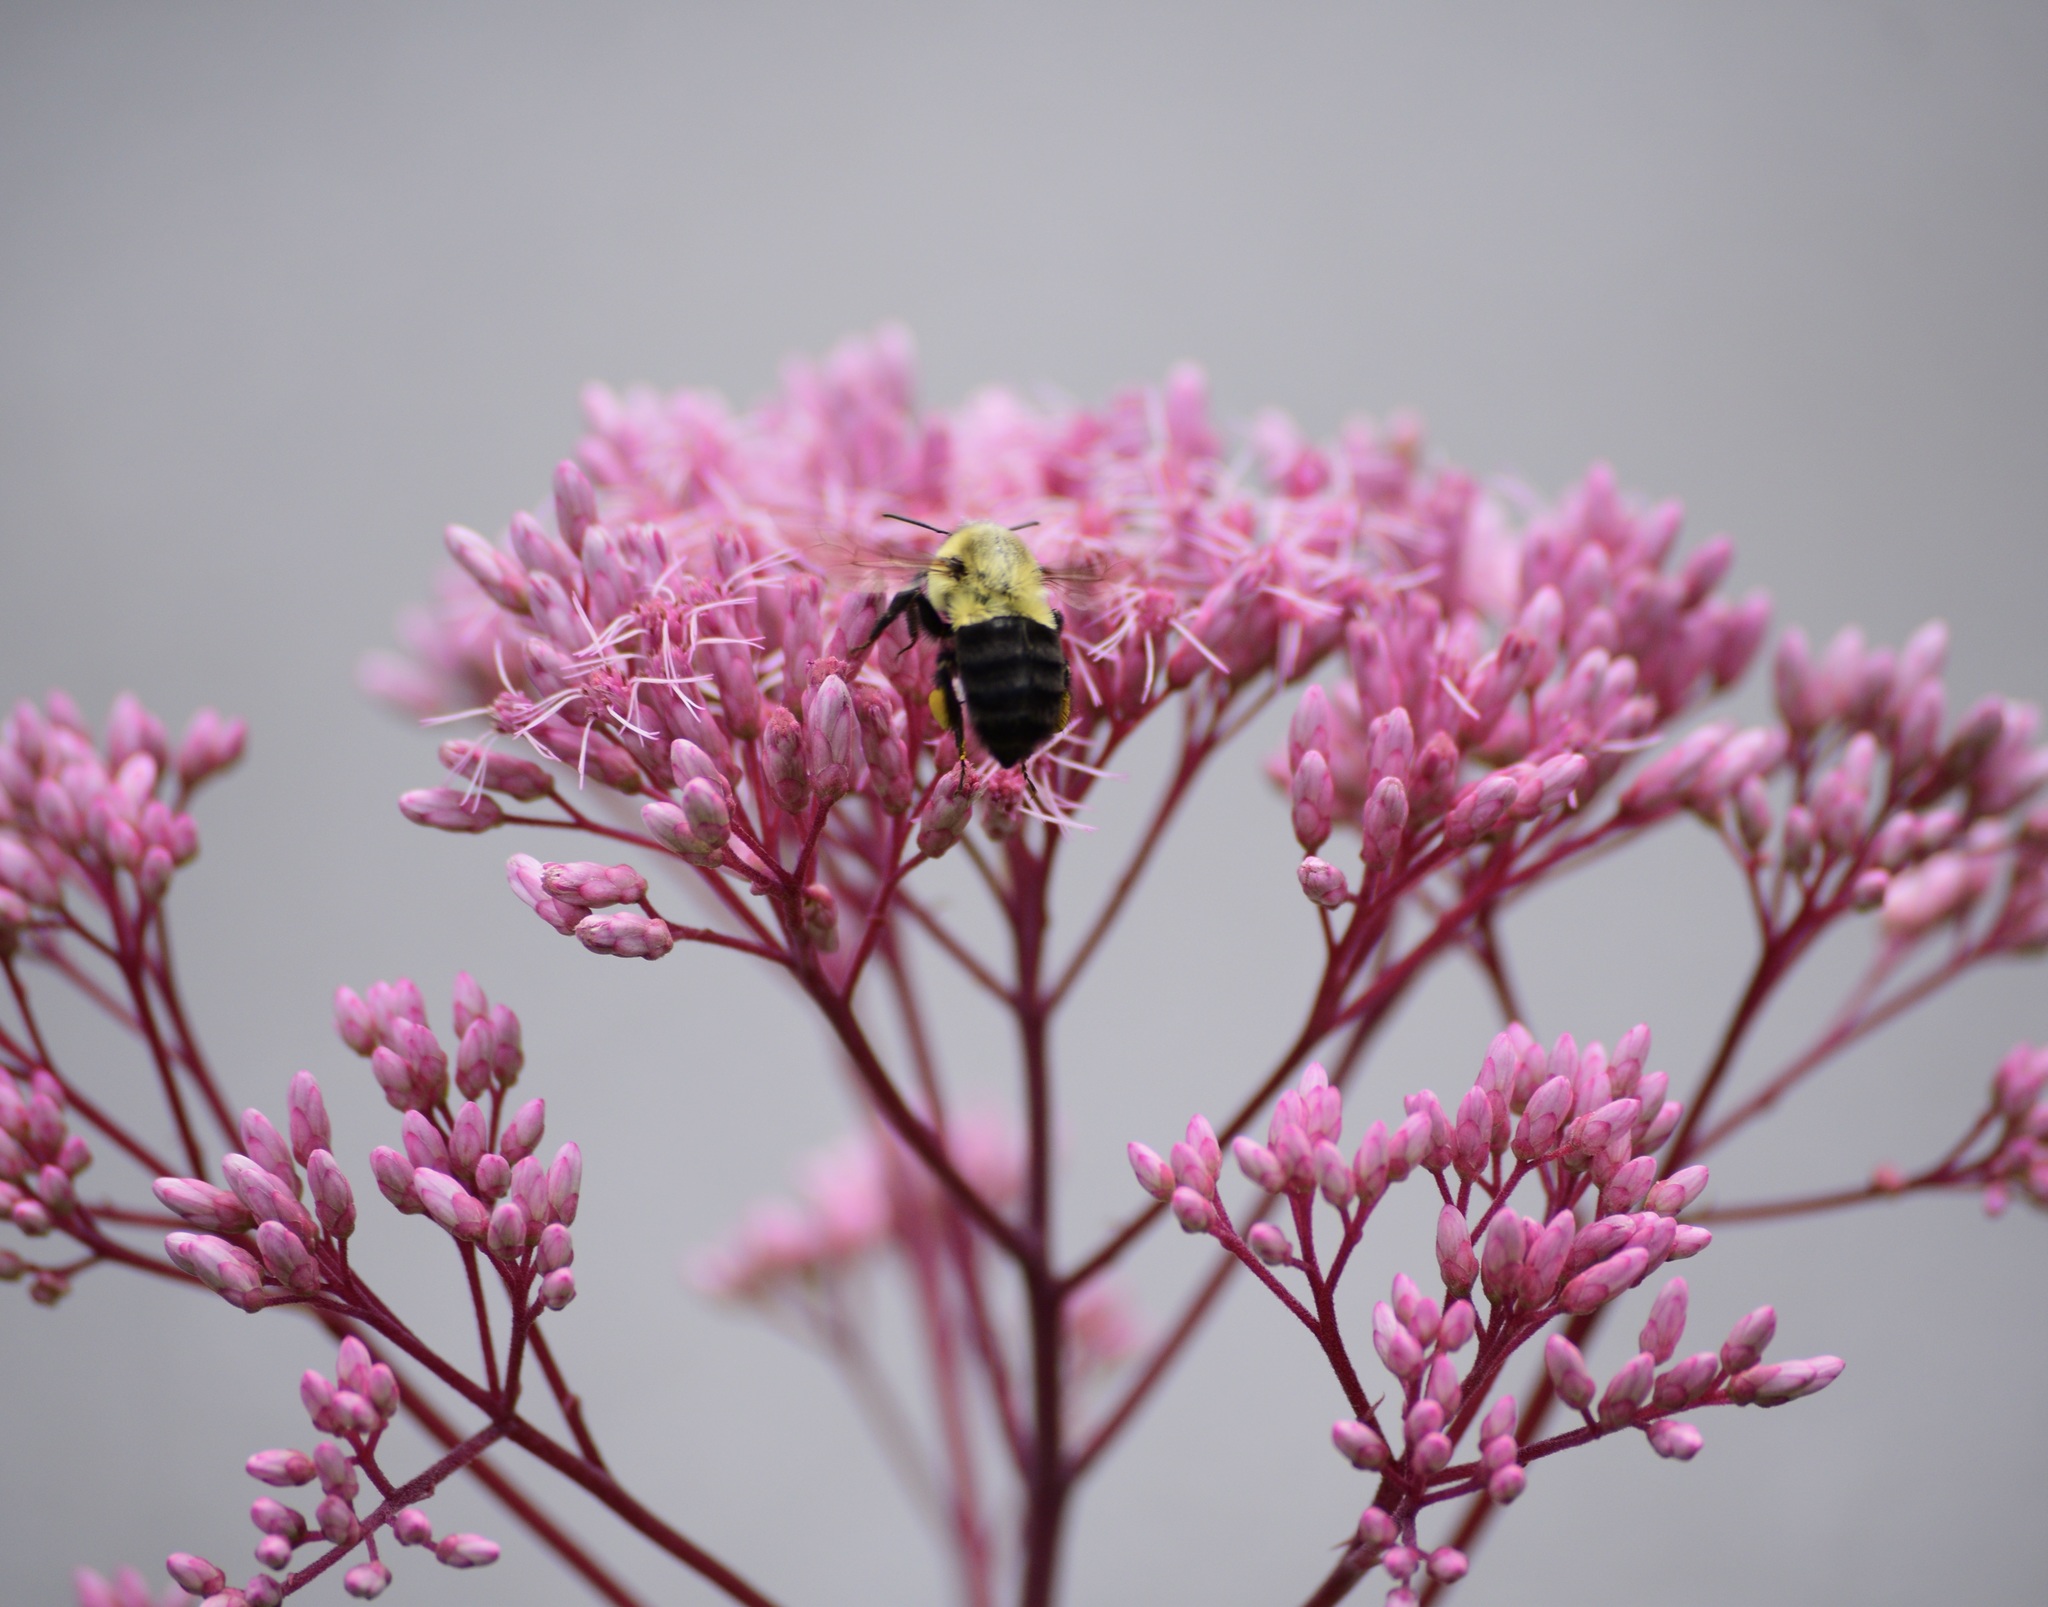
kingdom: Animalia
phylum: Arthropoda
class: Insecta
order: Hymenoptera
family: Apidae
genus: Bombus
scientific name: Bombus impatiens
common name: Common eastern bumble bee
